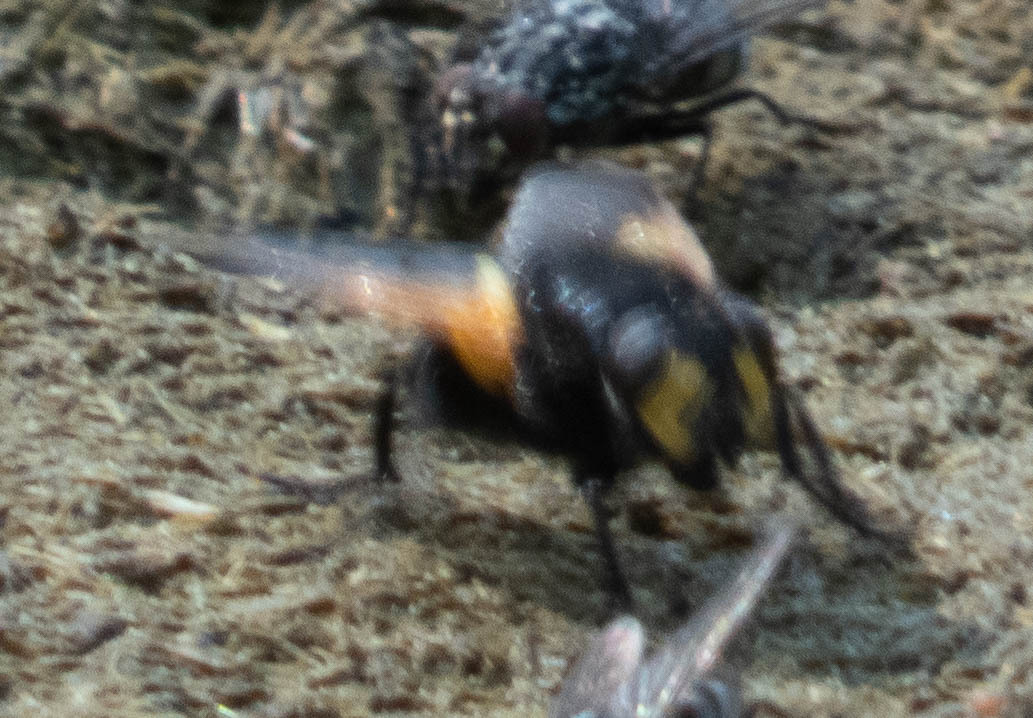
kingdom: Animalia
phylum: Arthropoda
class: Insecta
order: Diptera
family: Muscidae
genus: Mesembrina
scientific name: Mesembrina meridiana
